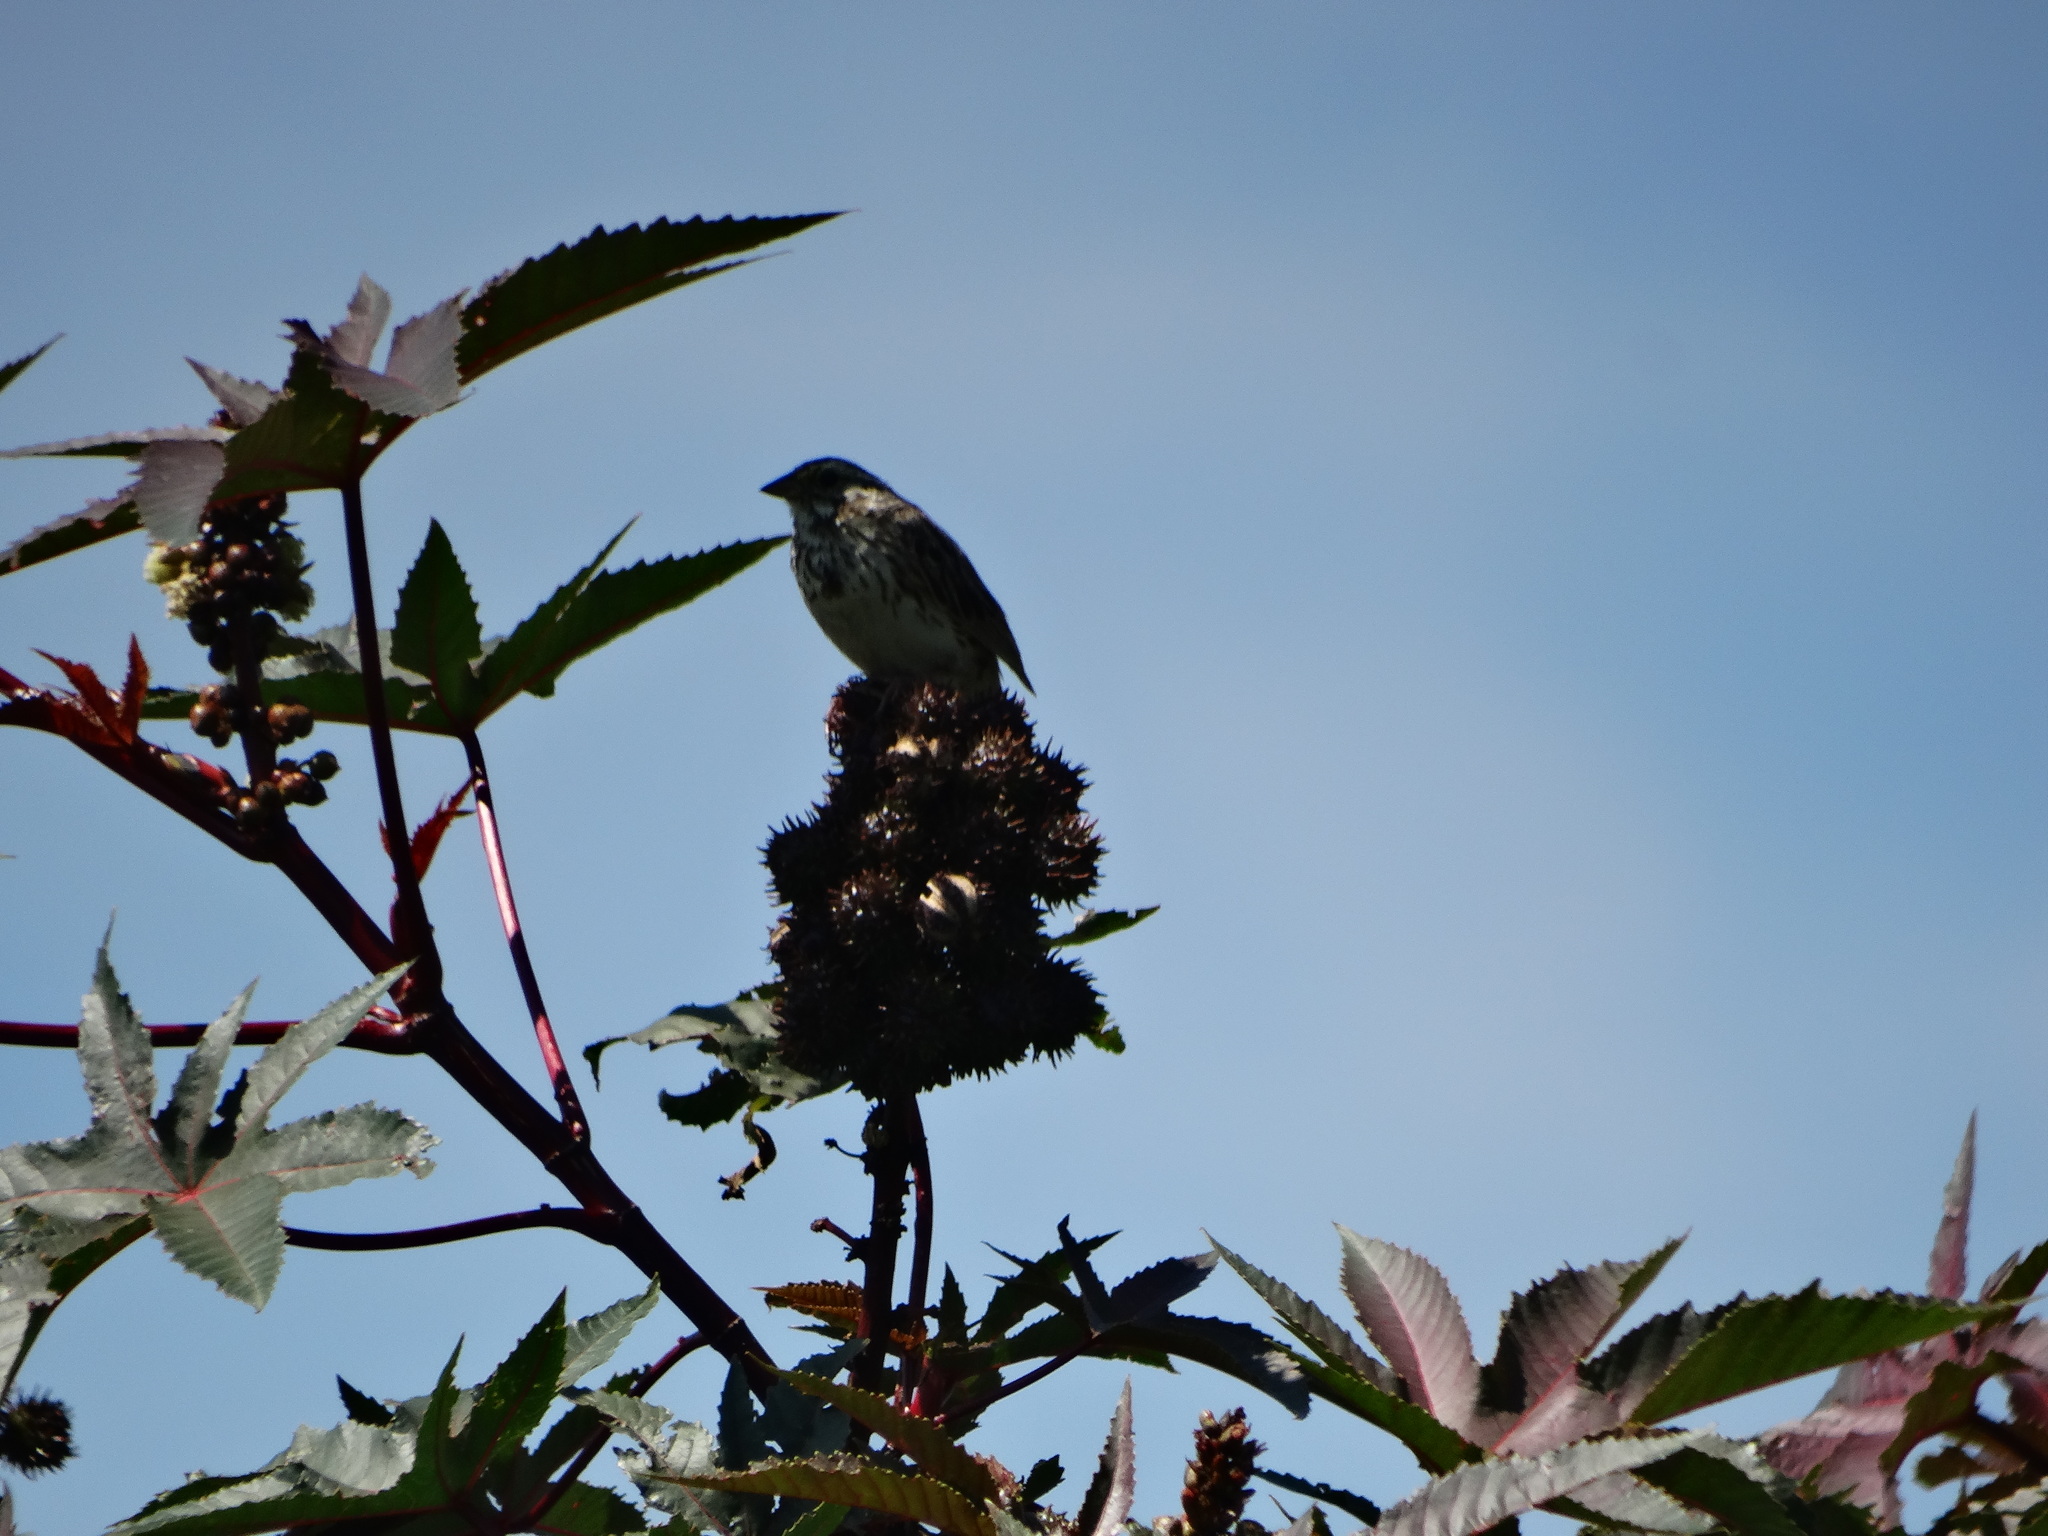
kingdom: Animalia
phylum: Chordata
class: Aves
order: Passeriformes
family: Passerellidae
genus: Melospiza
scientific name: Melospiza melodia
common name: Song sparrow
